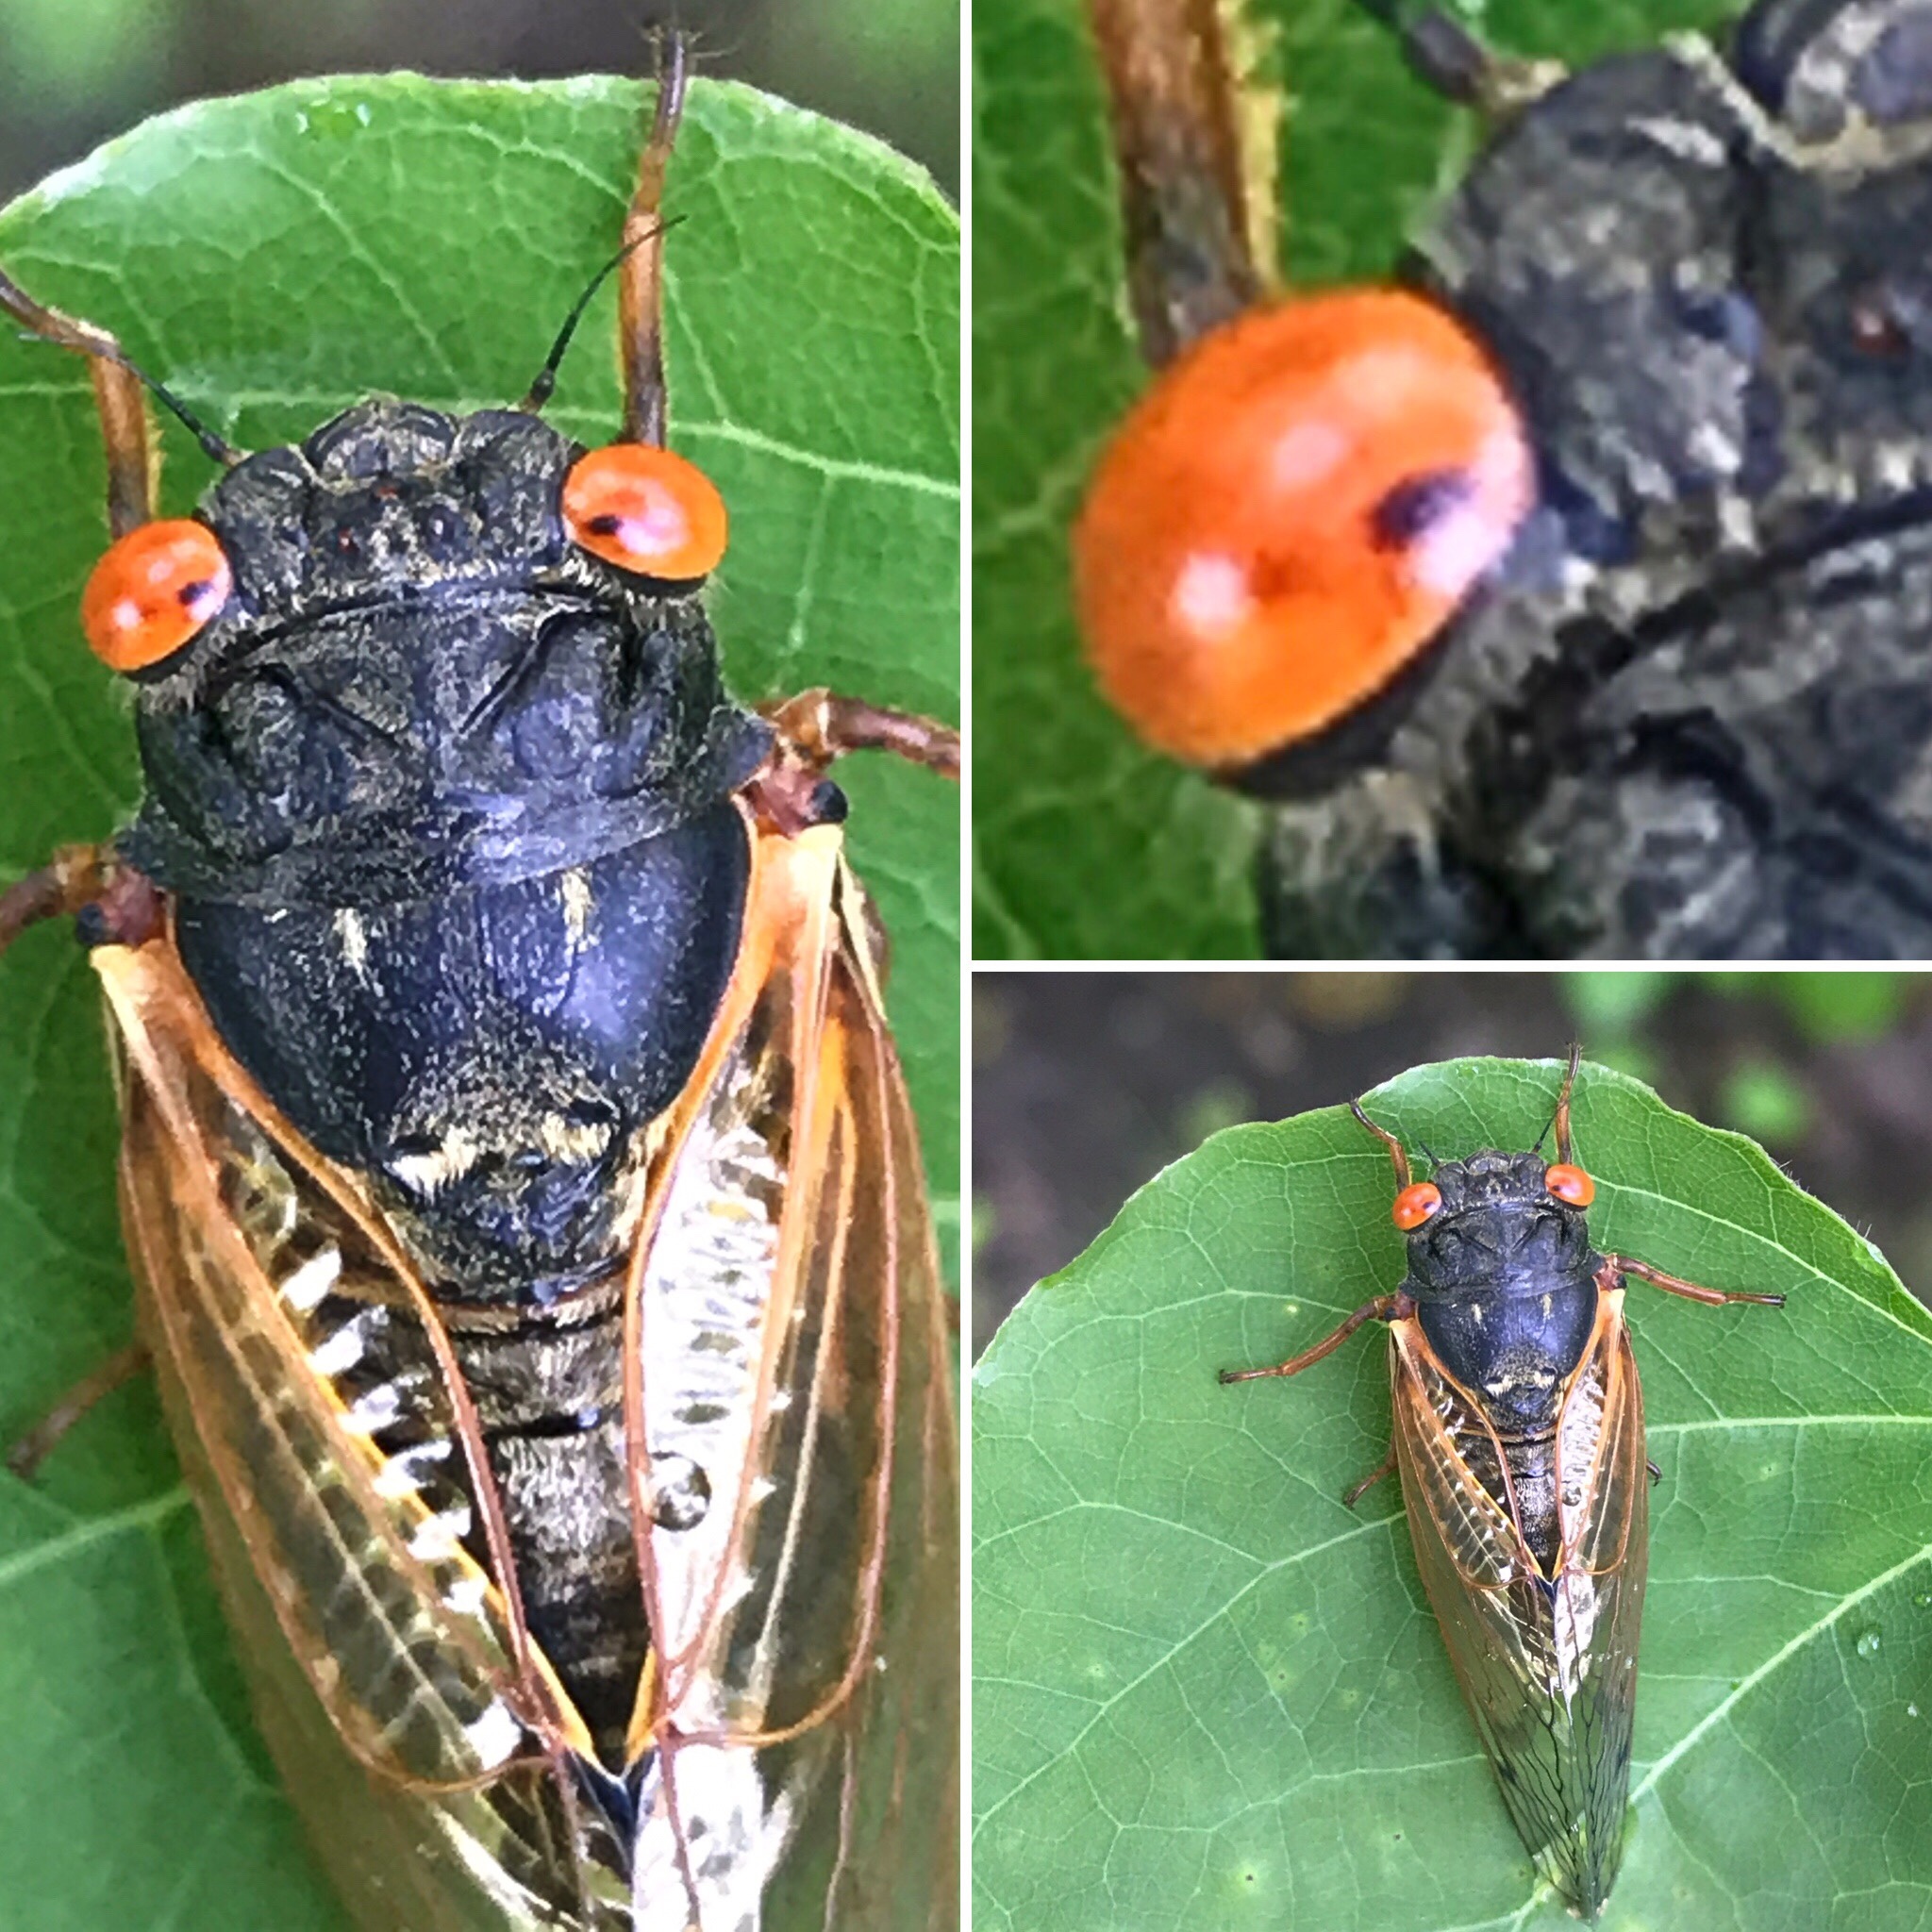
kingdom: Animalia
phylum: Arthropoda
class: Insecta
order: Hemiptera
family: Cicadidae
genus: Magicicada
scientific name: Magicicada
